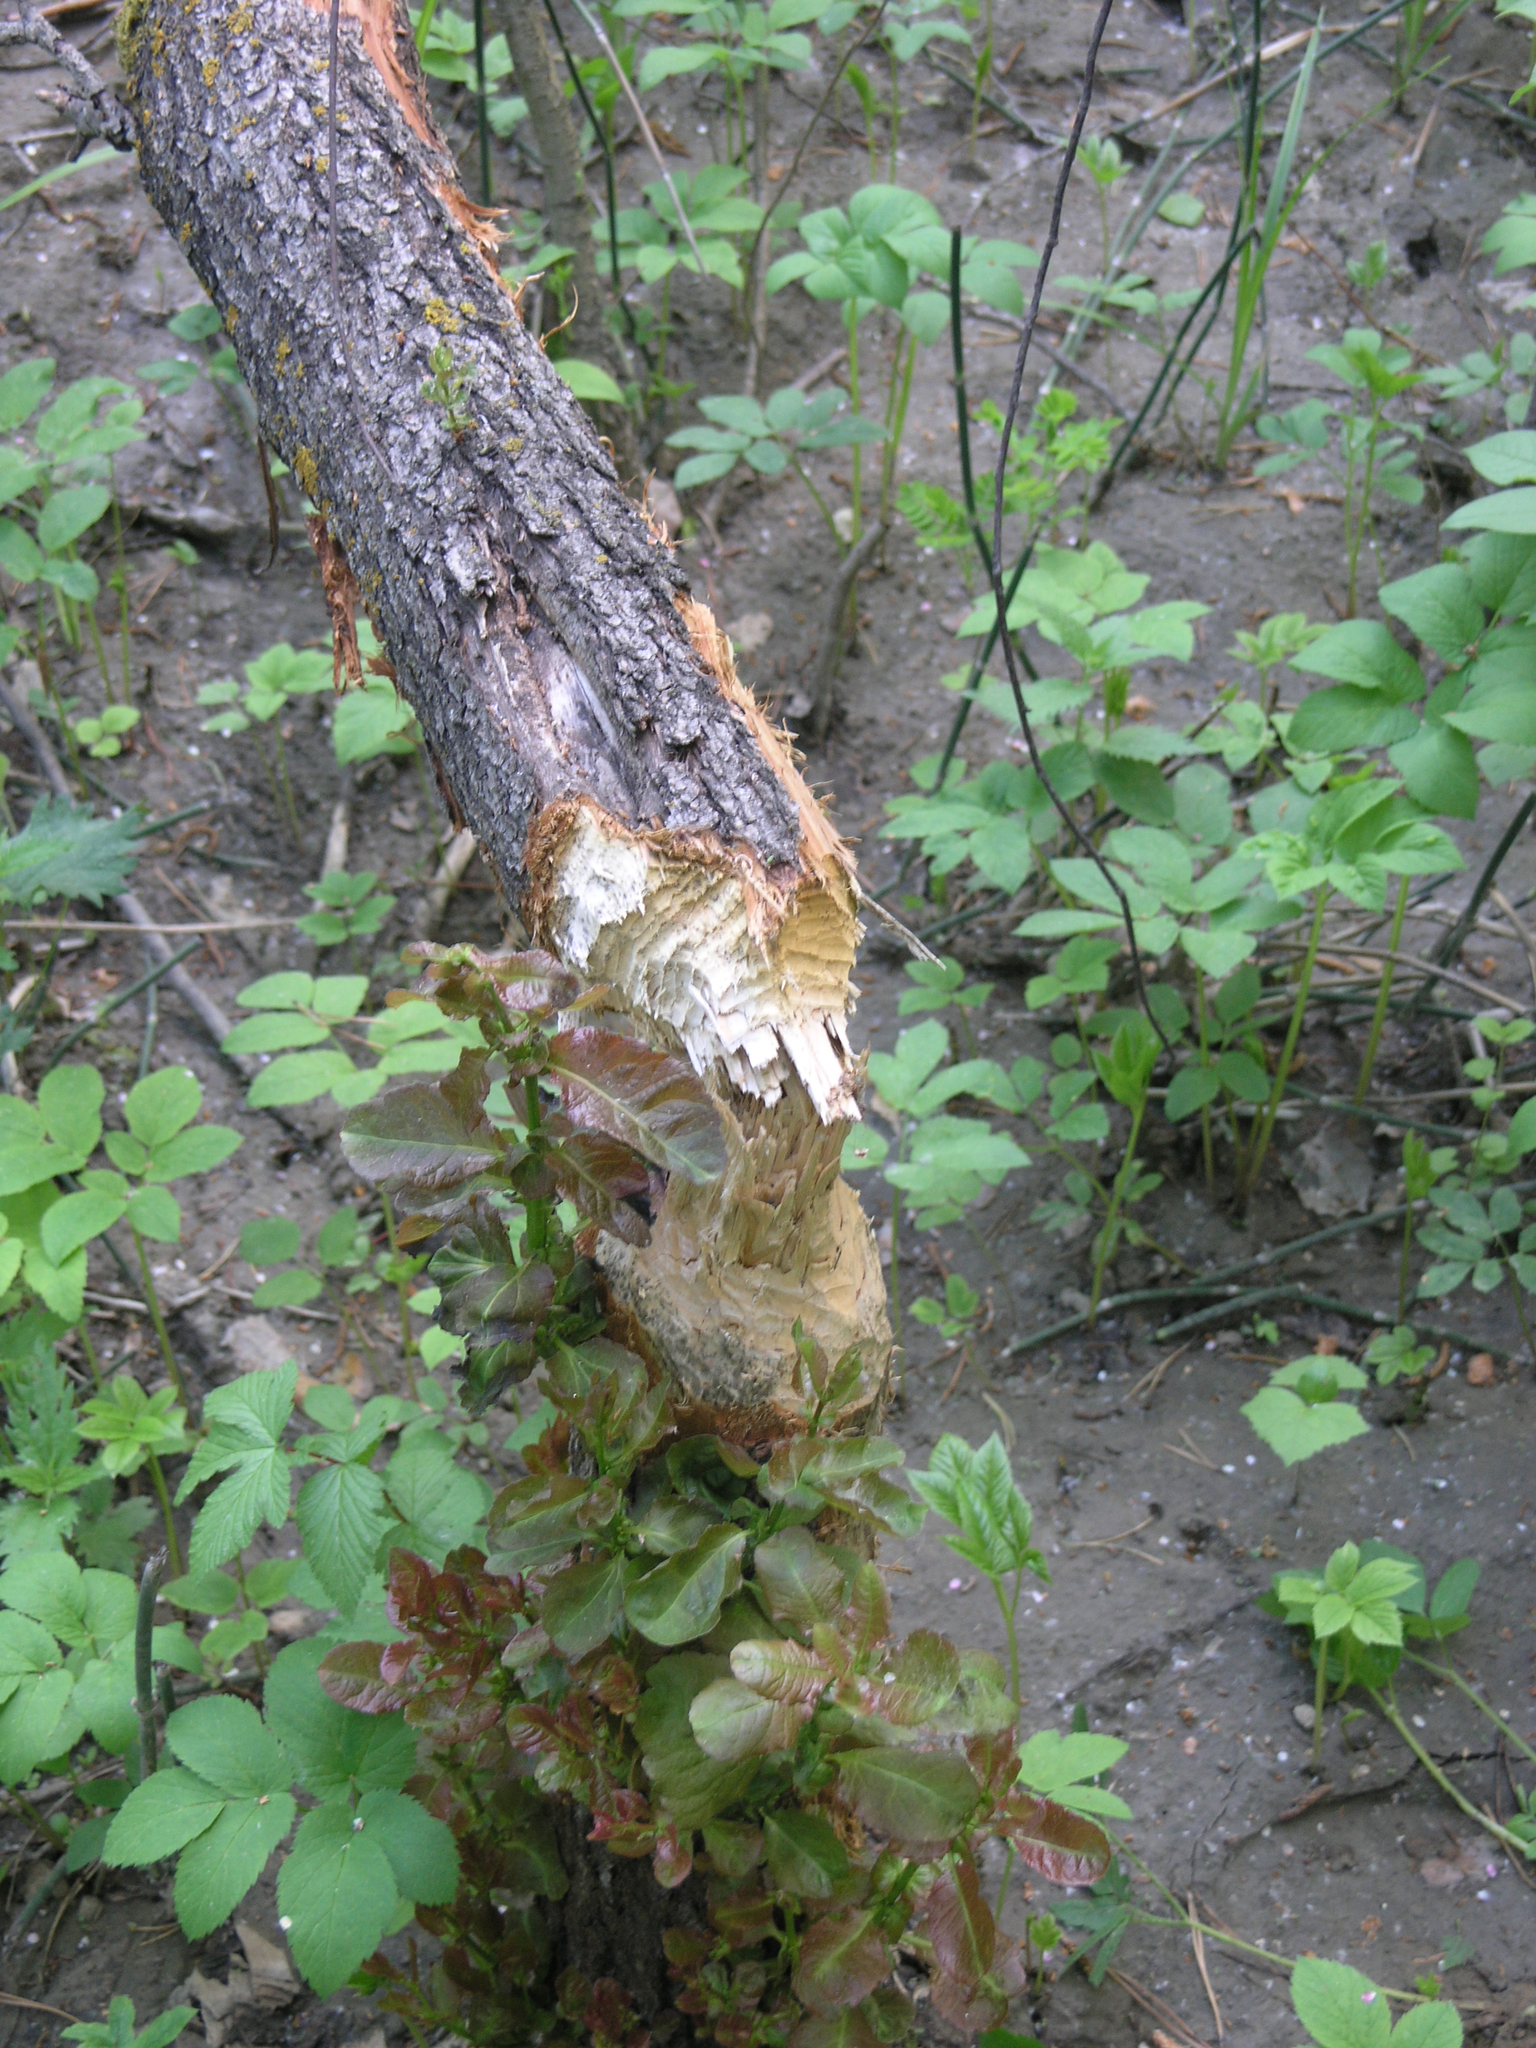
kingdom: Animalia
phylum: Chordata
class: Mammalia
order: Rodentia
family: Castoridae
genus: Castor
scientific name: Castor fiber
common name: Eurasian beaver
